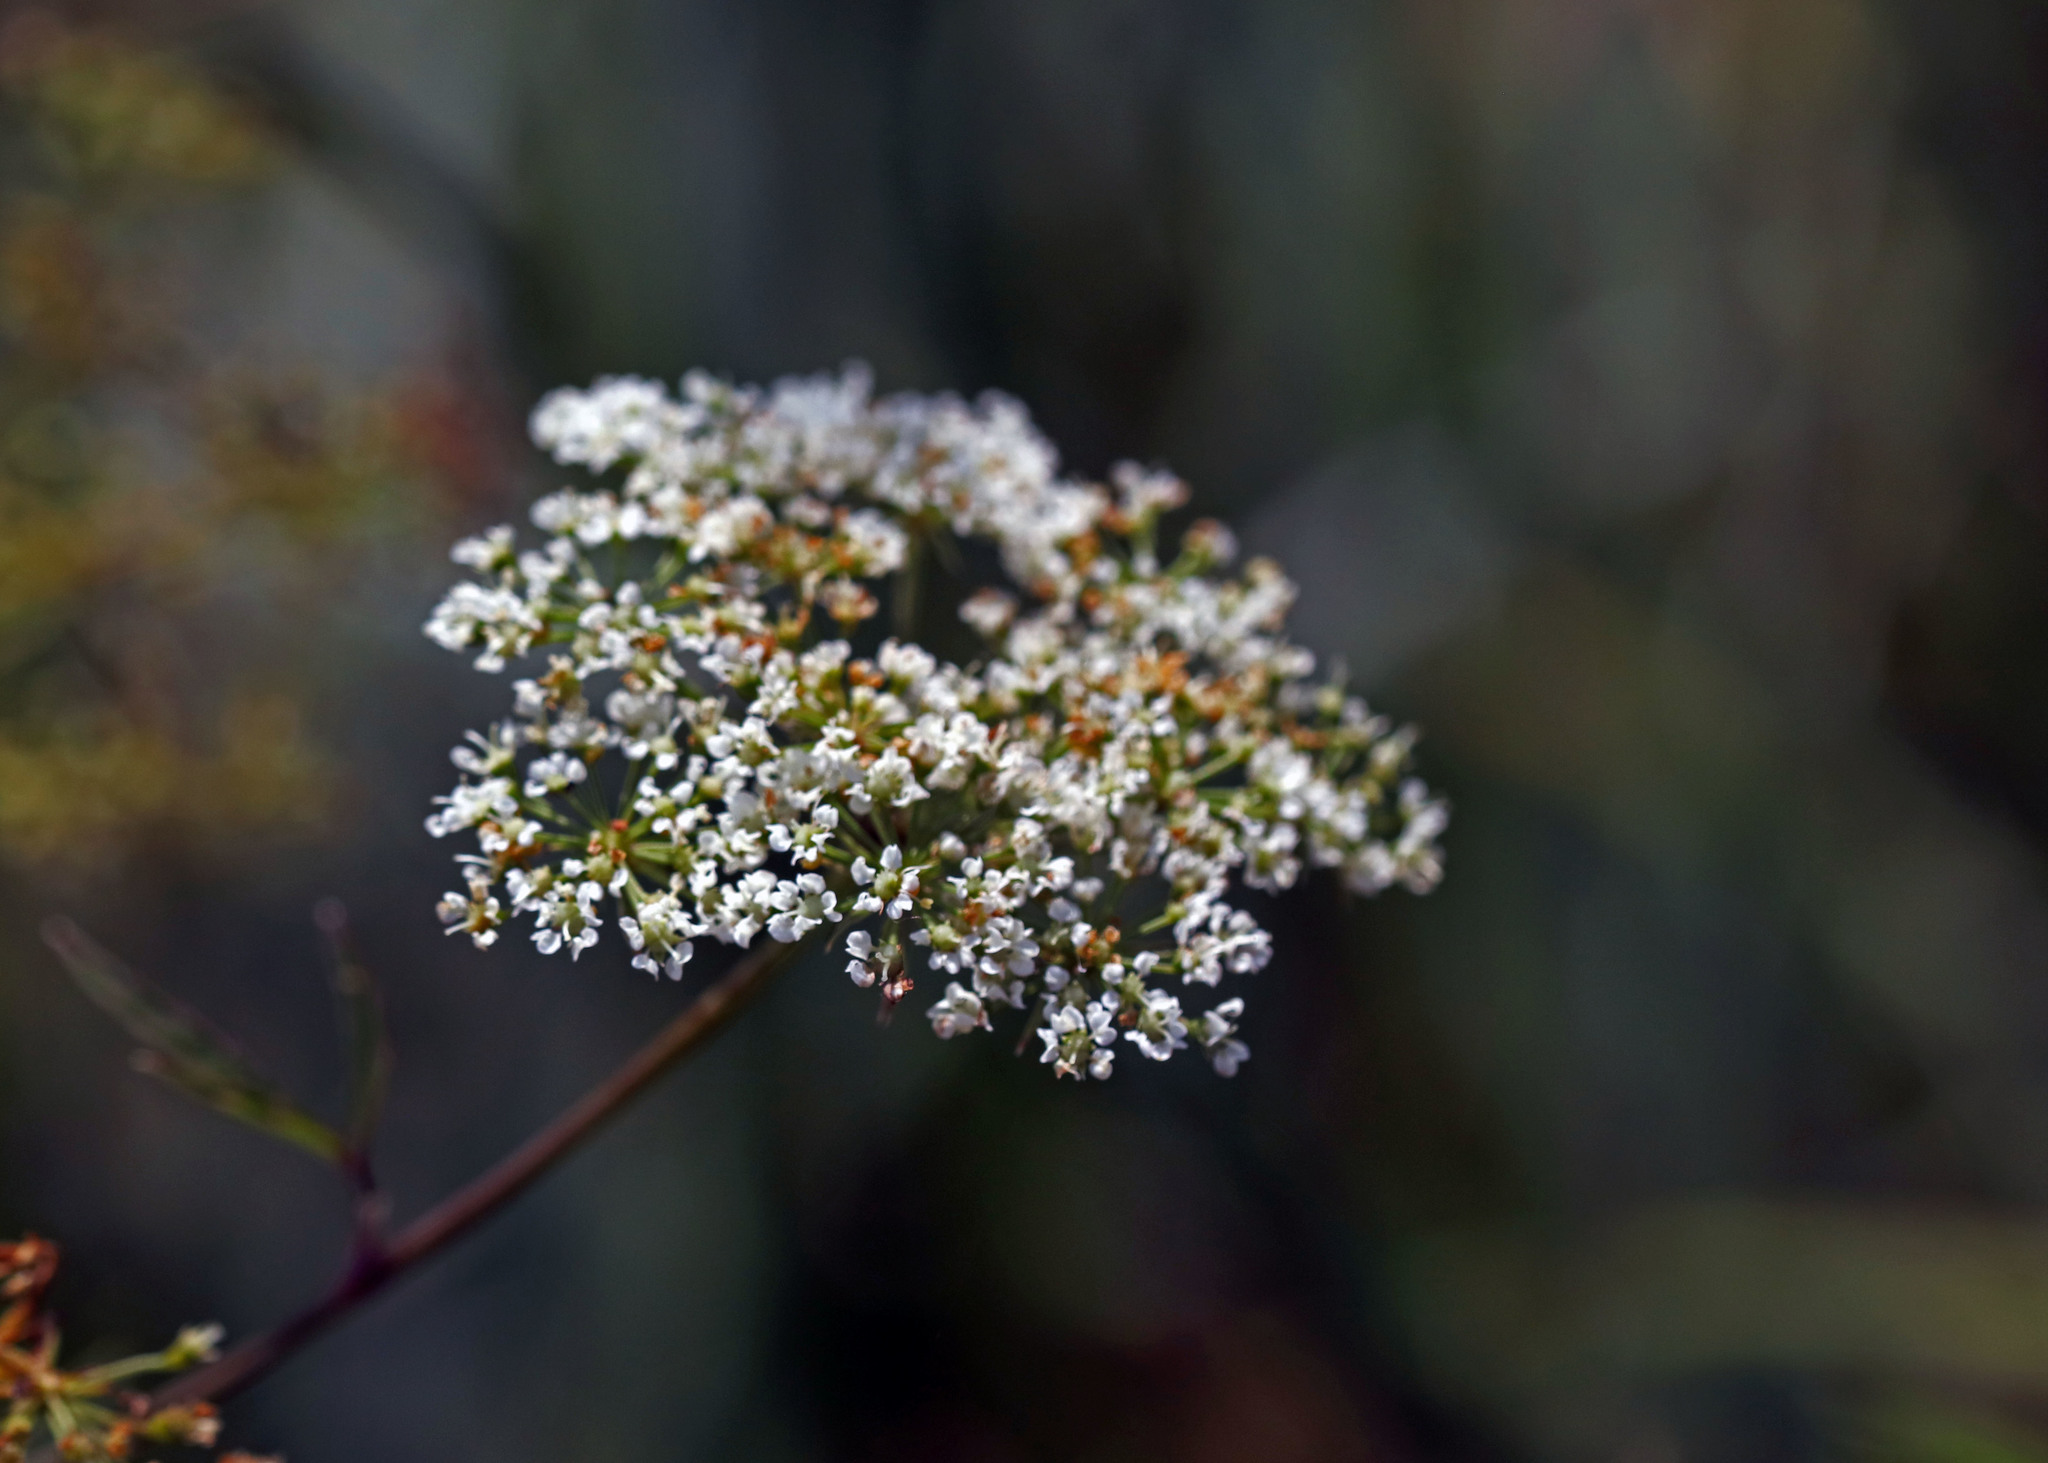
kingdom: Plantae
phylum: Tracheophyta
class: Magnoliopsida
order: Apiales
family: Apiaceae
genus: Cicuta
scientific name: Cicuta maculata
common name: Spotted cowbane
